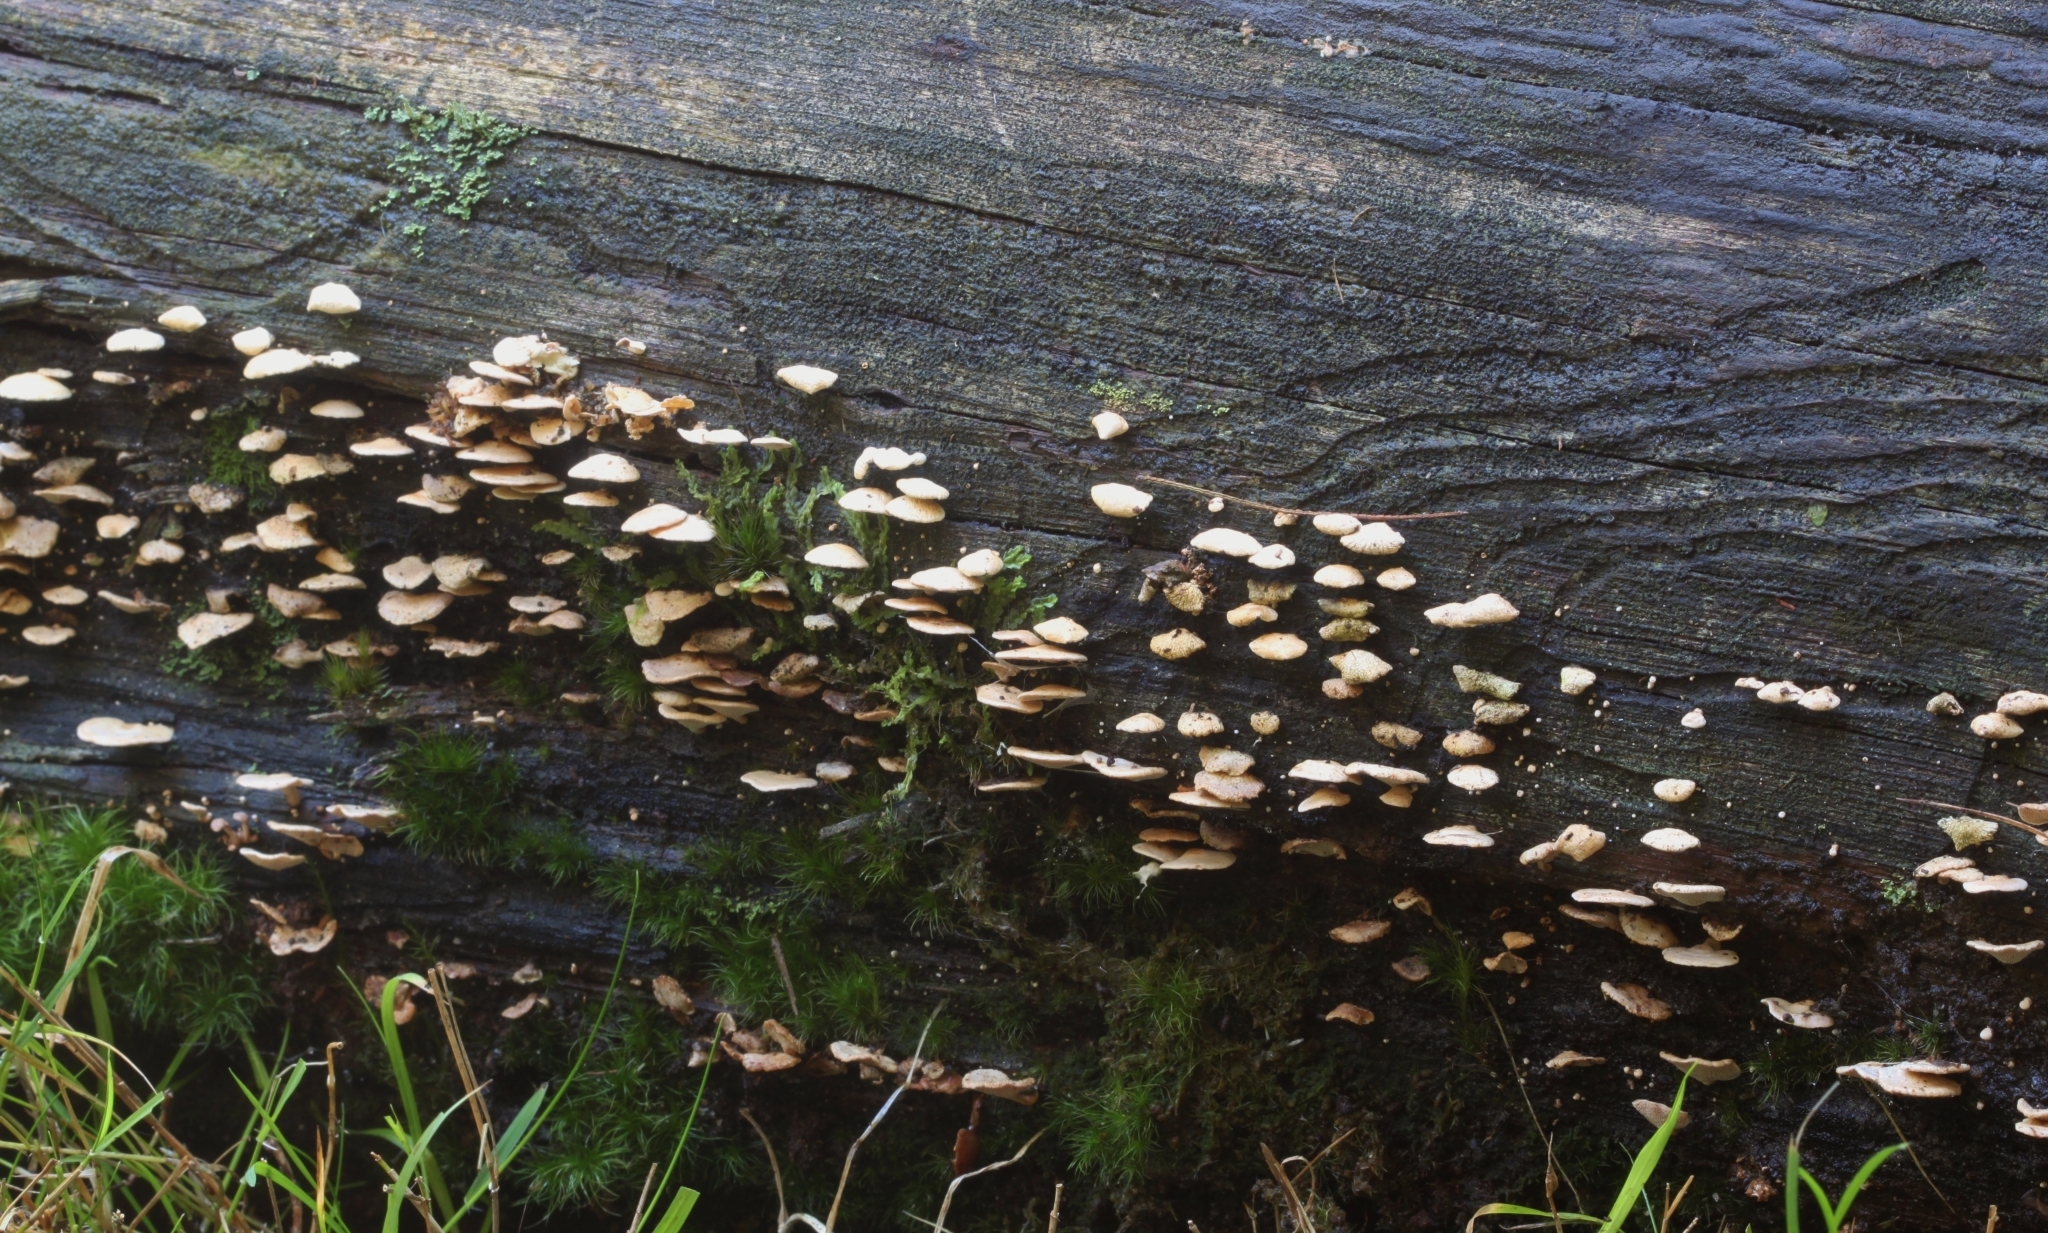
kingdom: Fungi
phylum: Basidiomycota
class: Agaricomycetes
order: Agaricales
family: Mycenaceae
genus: Panellus
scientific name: Panellus pusillus
